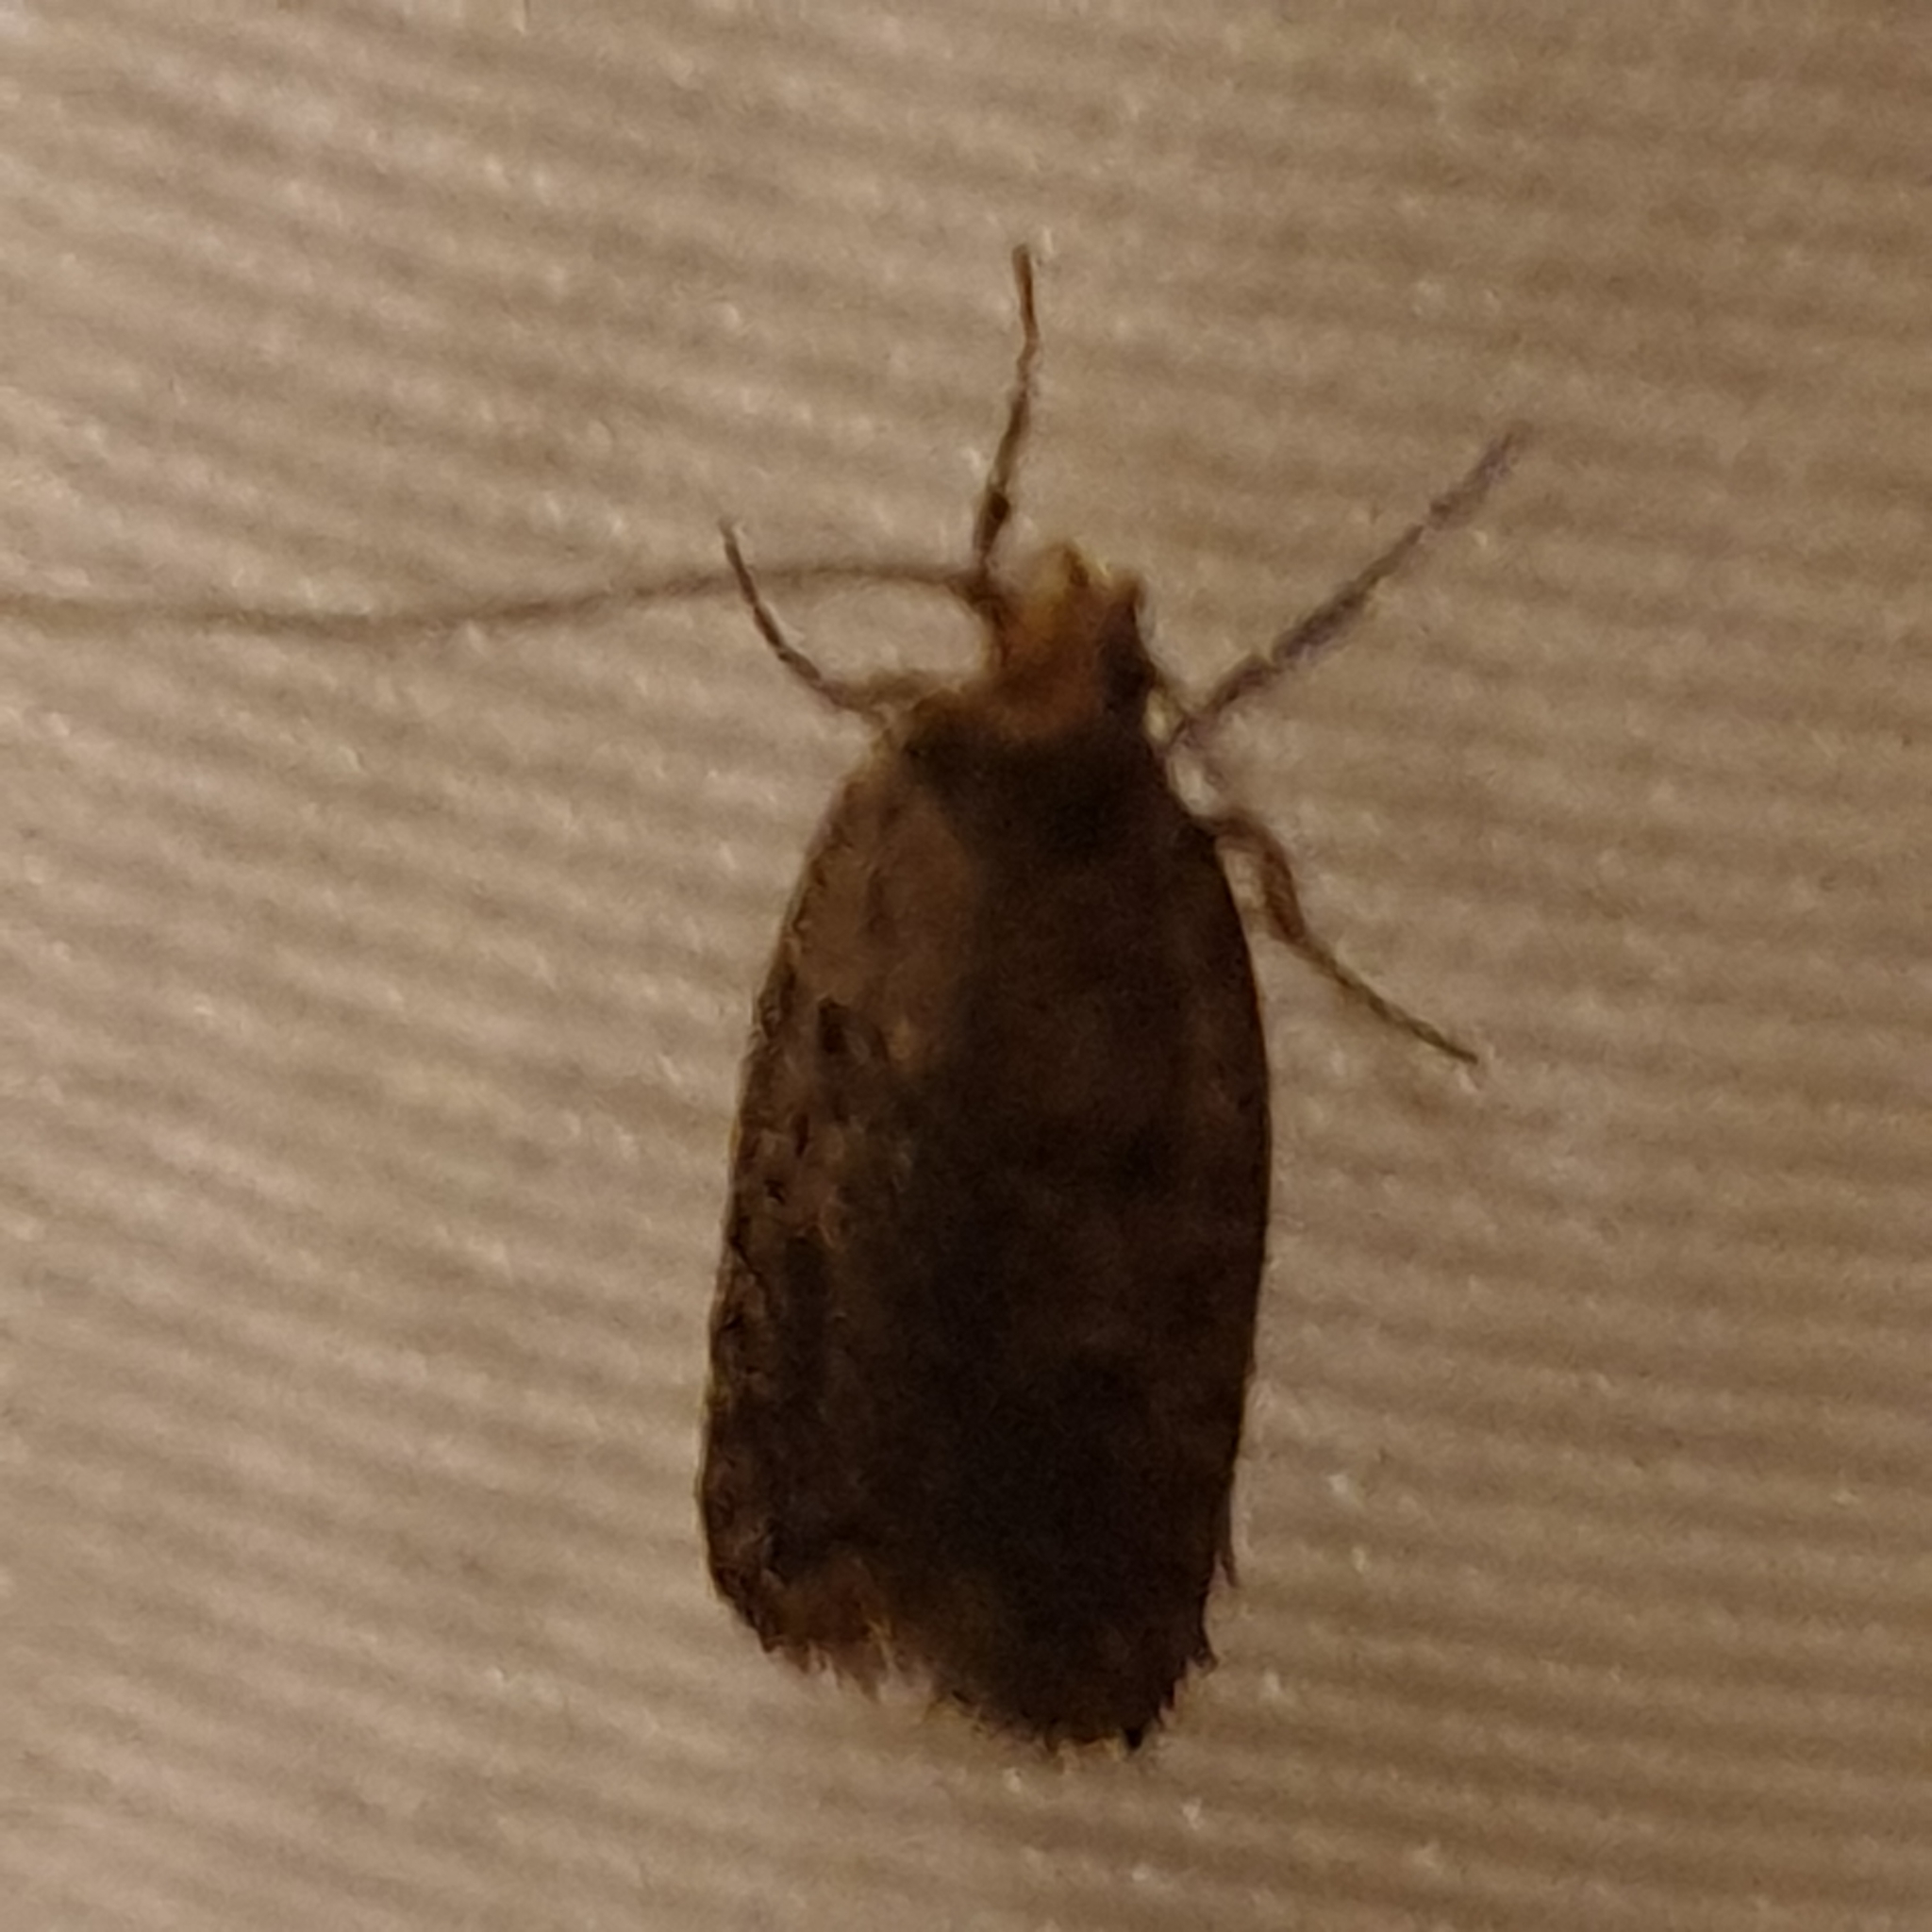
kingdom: Animalia
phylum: Arthropoda
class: Insecta
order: Lepidoptera
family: Oecophoridae
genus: Hofmannophila
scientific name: Hofmannophila pseudospretella
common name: Brown house moth
